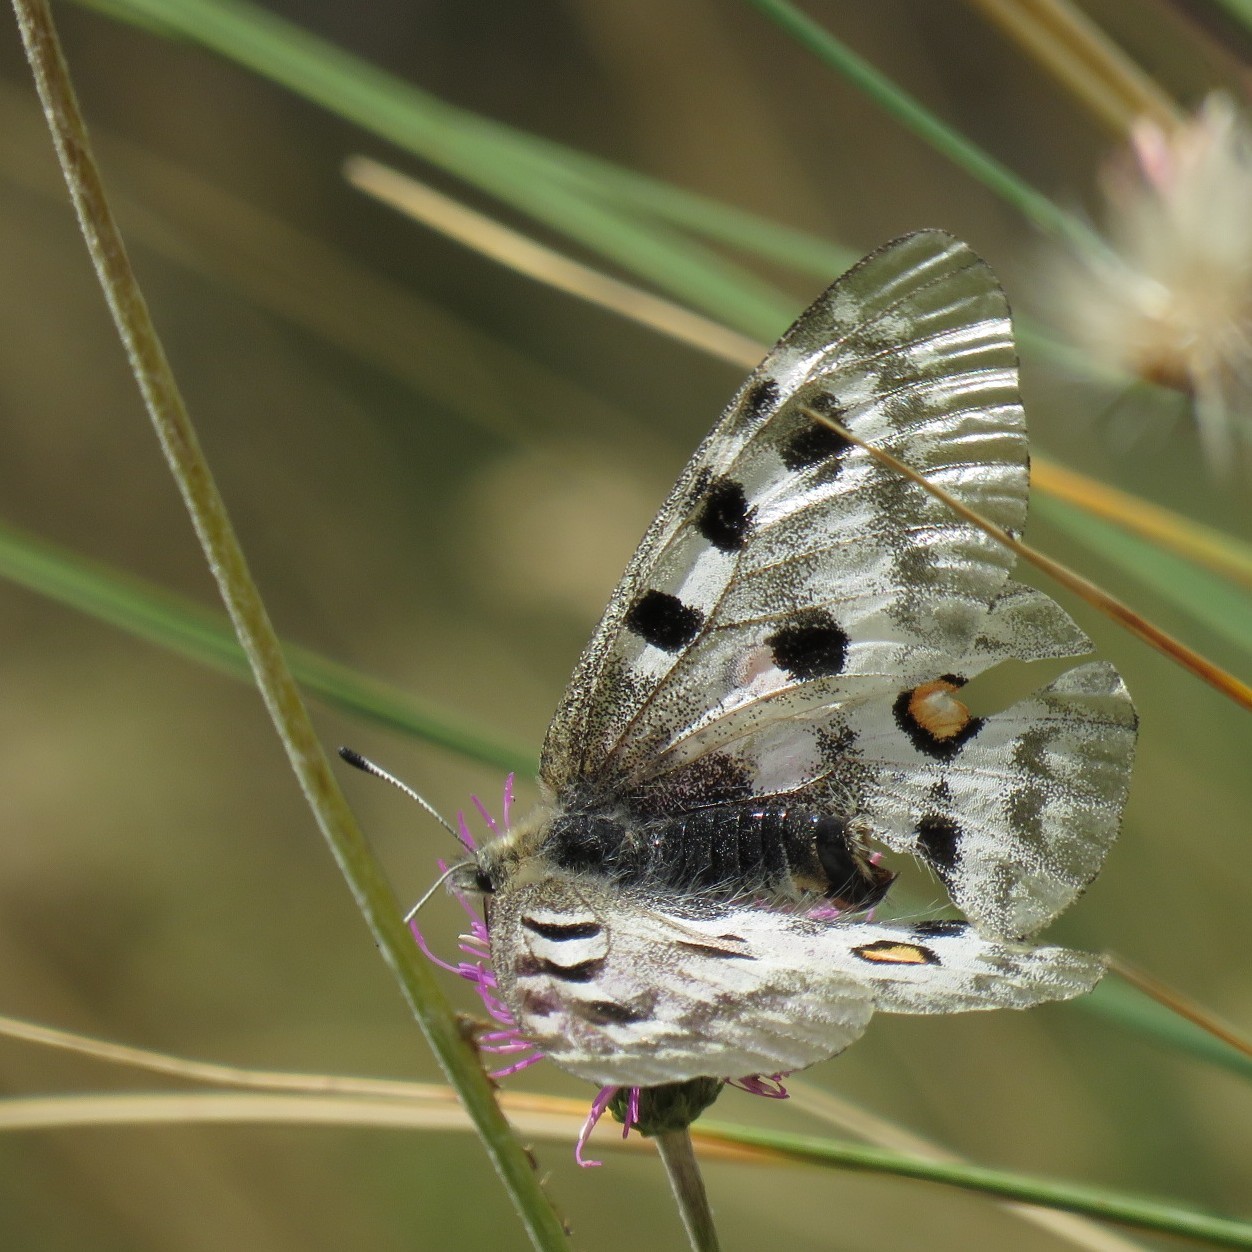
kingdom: Animalia
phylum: Arthropoda
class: Insecta
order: Lepidoptera
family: Papilionidae
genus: Parnassius
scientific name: Parnassius apollo
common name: Apollo
